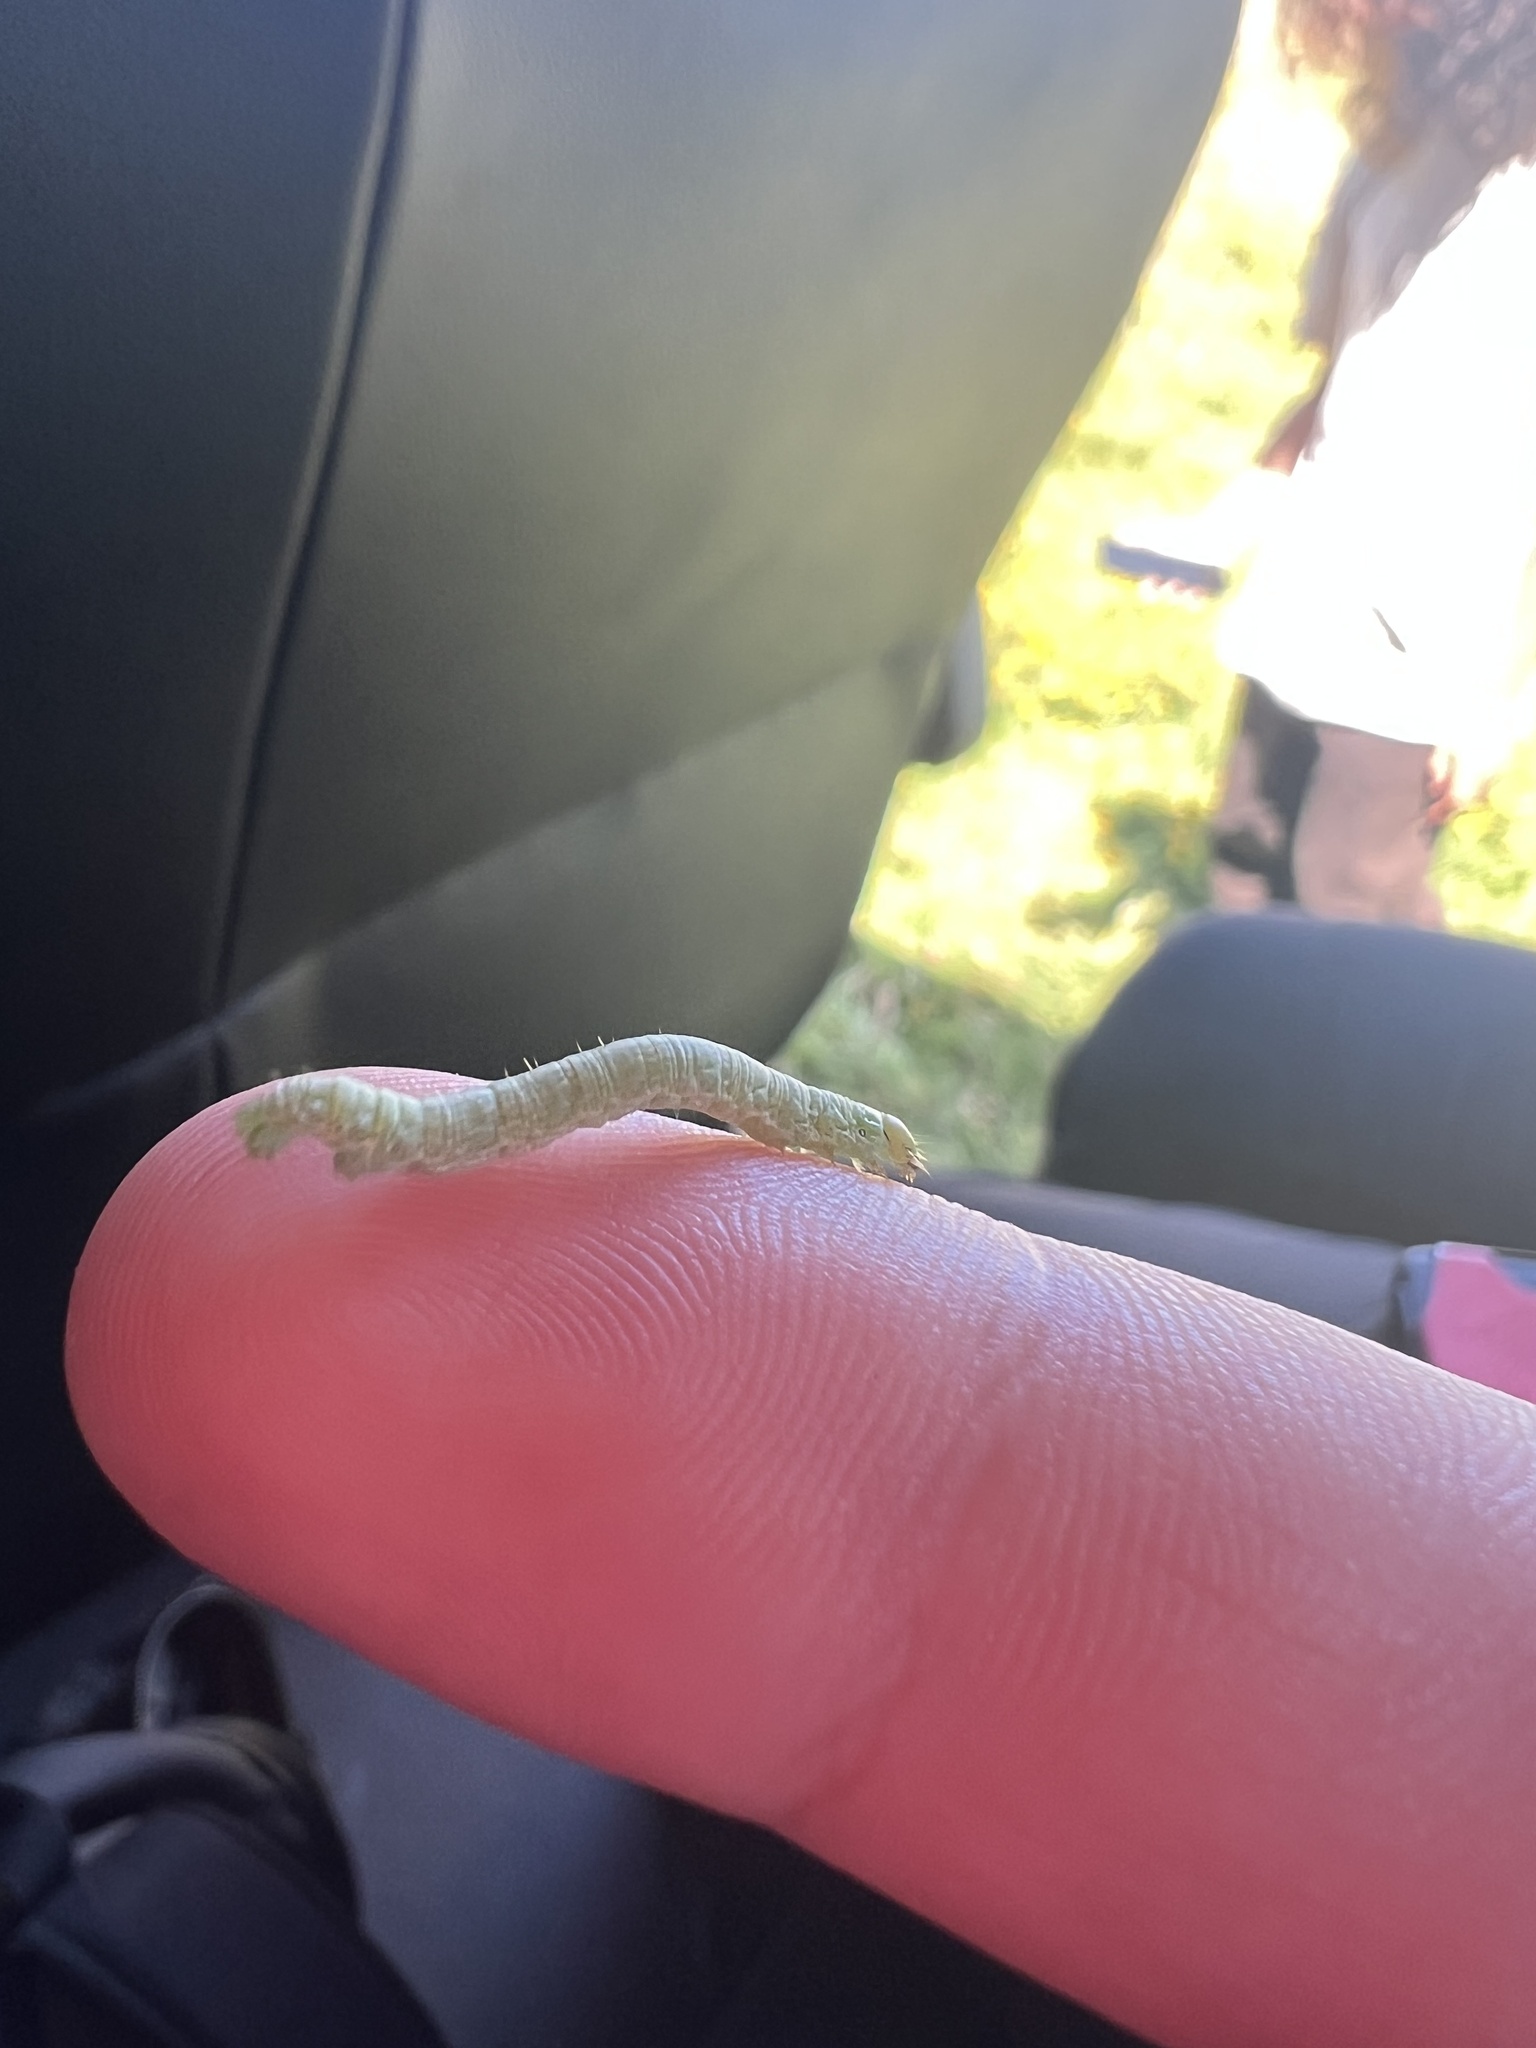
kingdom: Animalia
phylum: Arthropoda
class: Insecta
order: Lepidoptera
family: Geometridae
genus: Scotorythra
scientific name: Scotorythra
